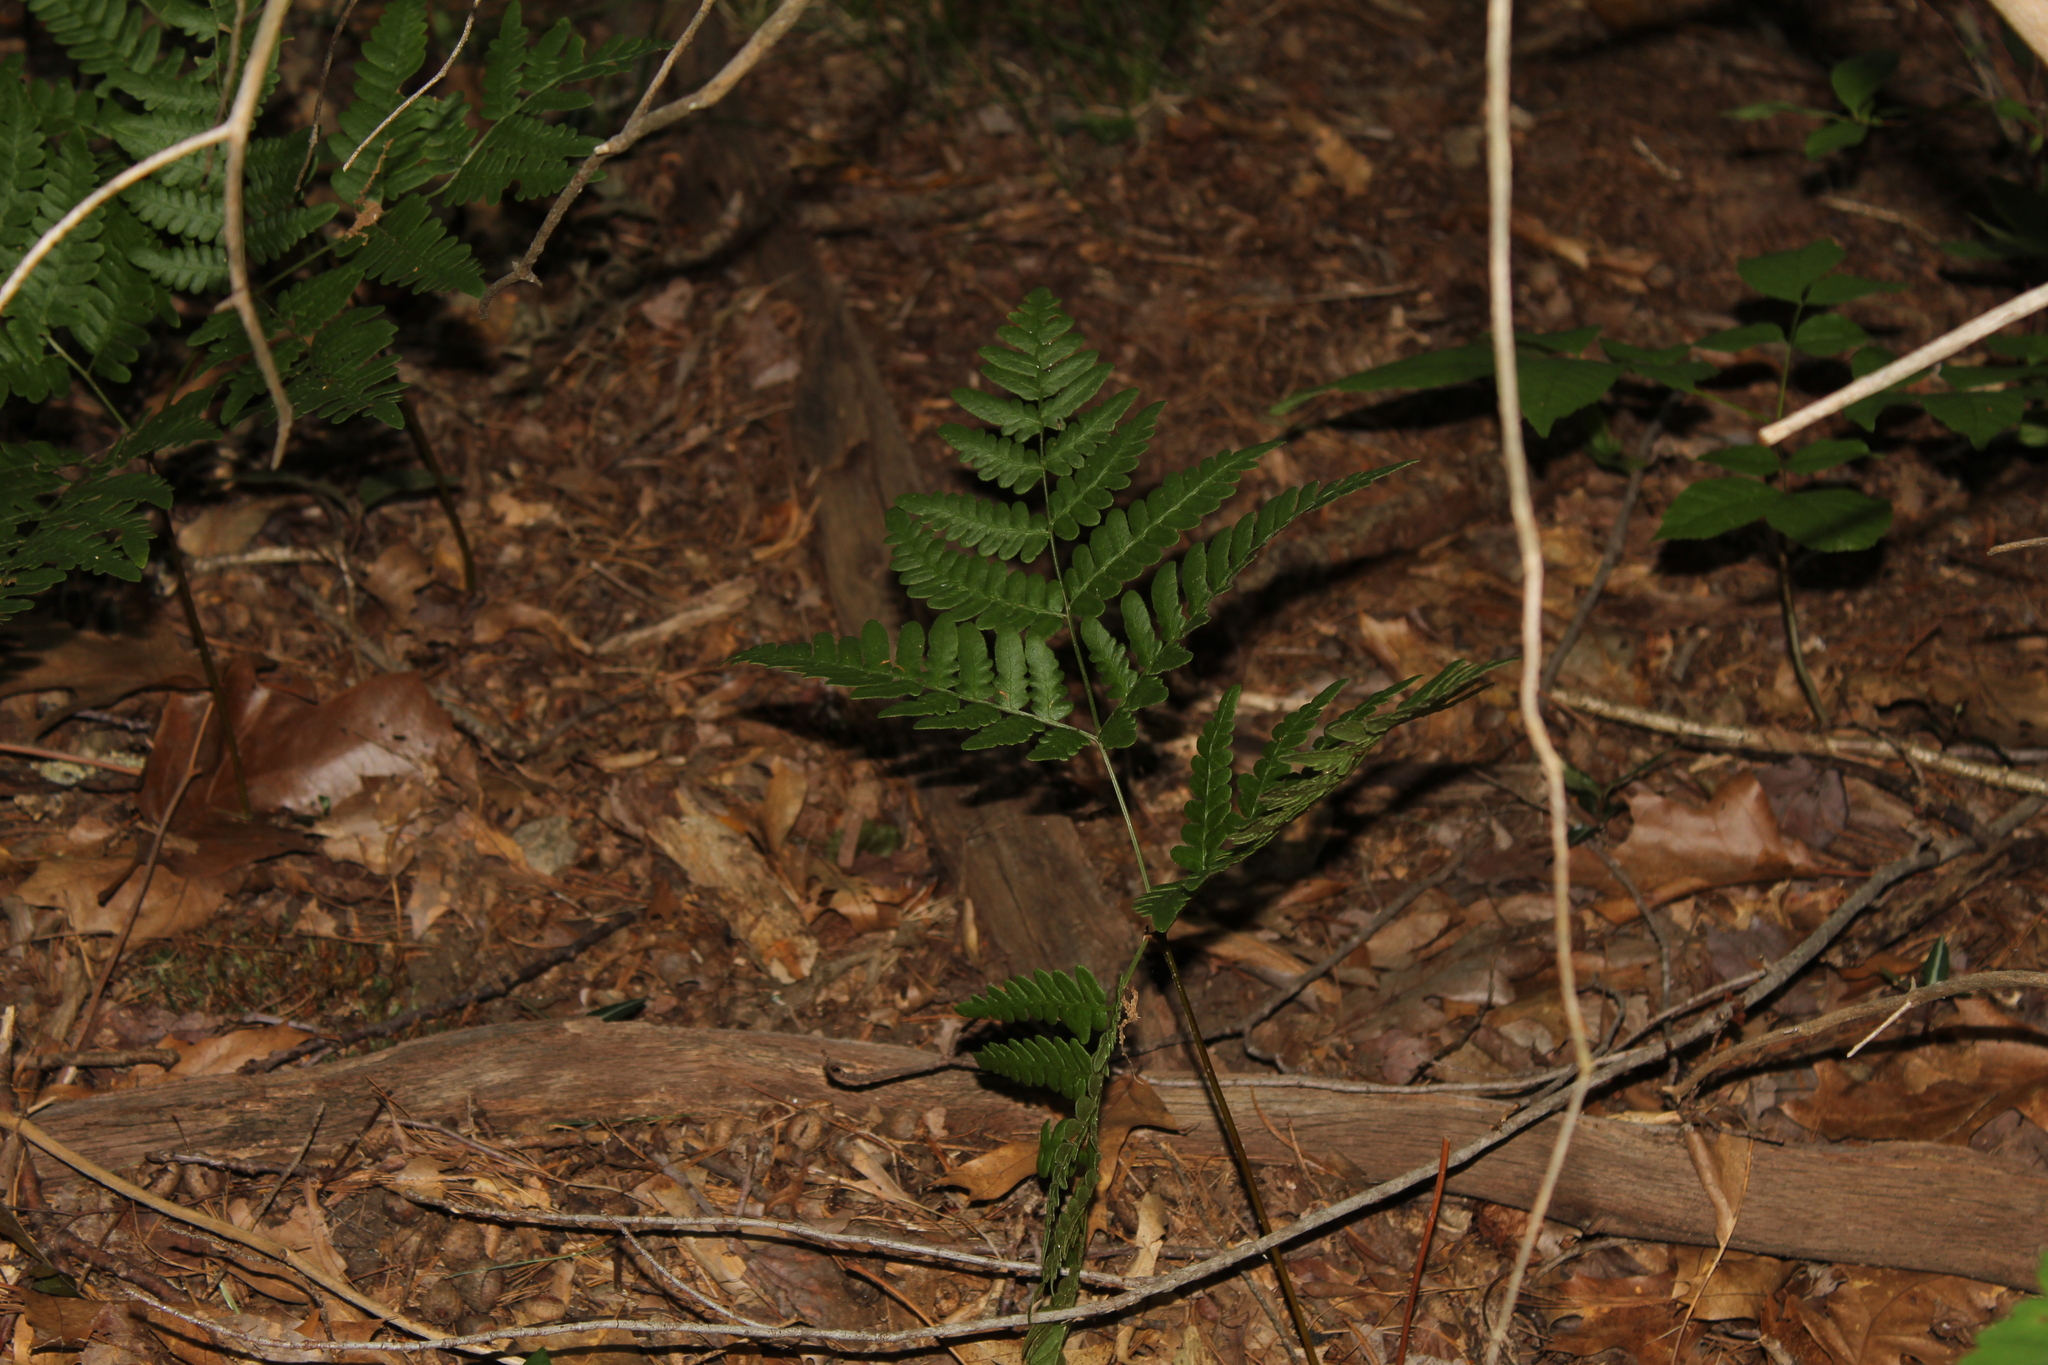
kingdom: Plantae
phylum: Tracheophyta
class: Polypodiopsida
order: Polypodiales
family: Dennstaedtiaceae
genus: Pteridium
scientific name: Pteridium aquilinum
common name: Bracken
